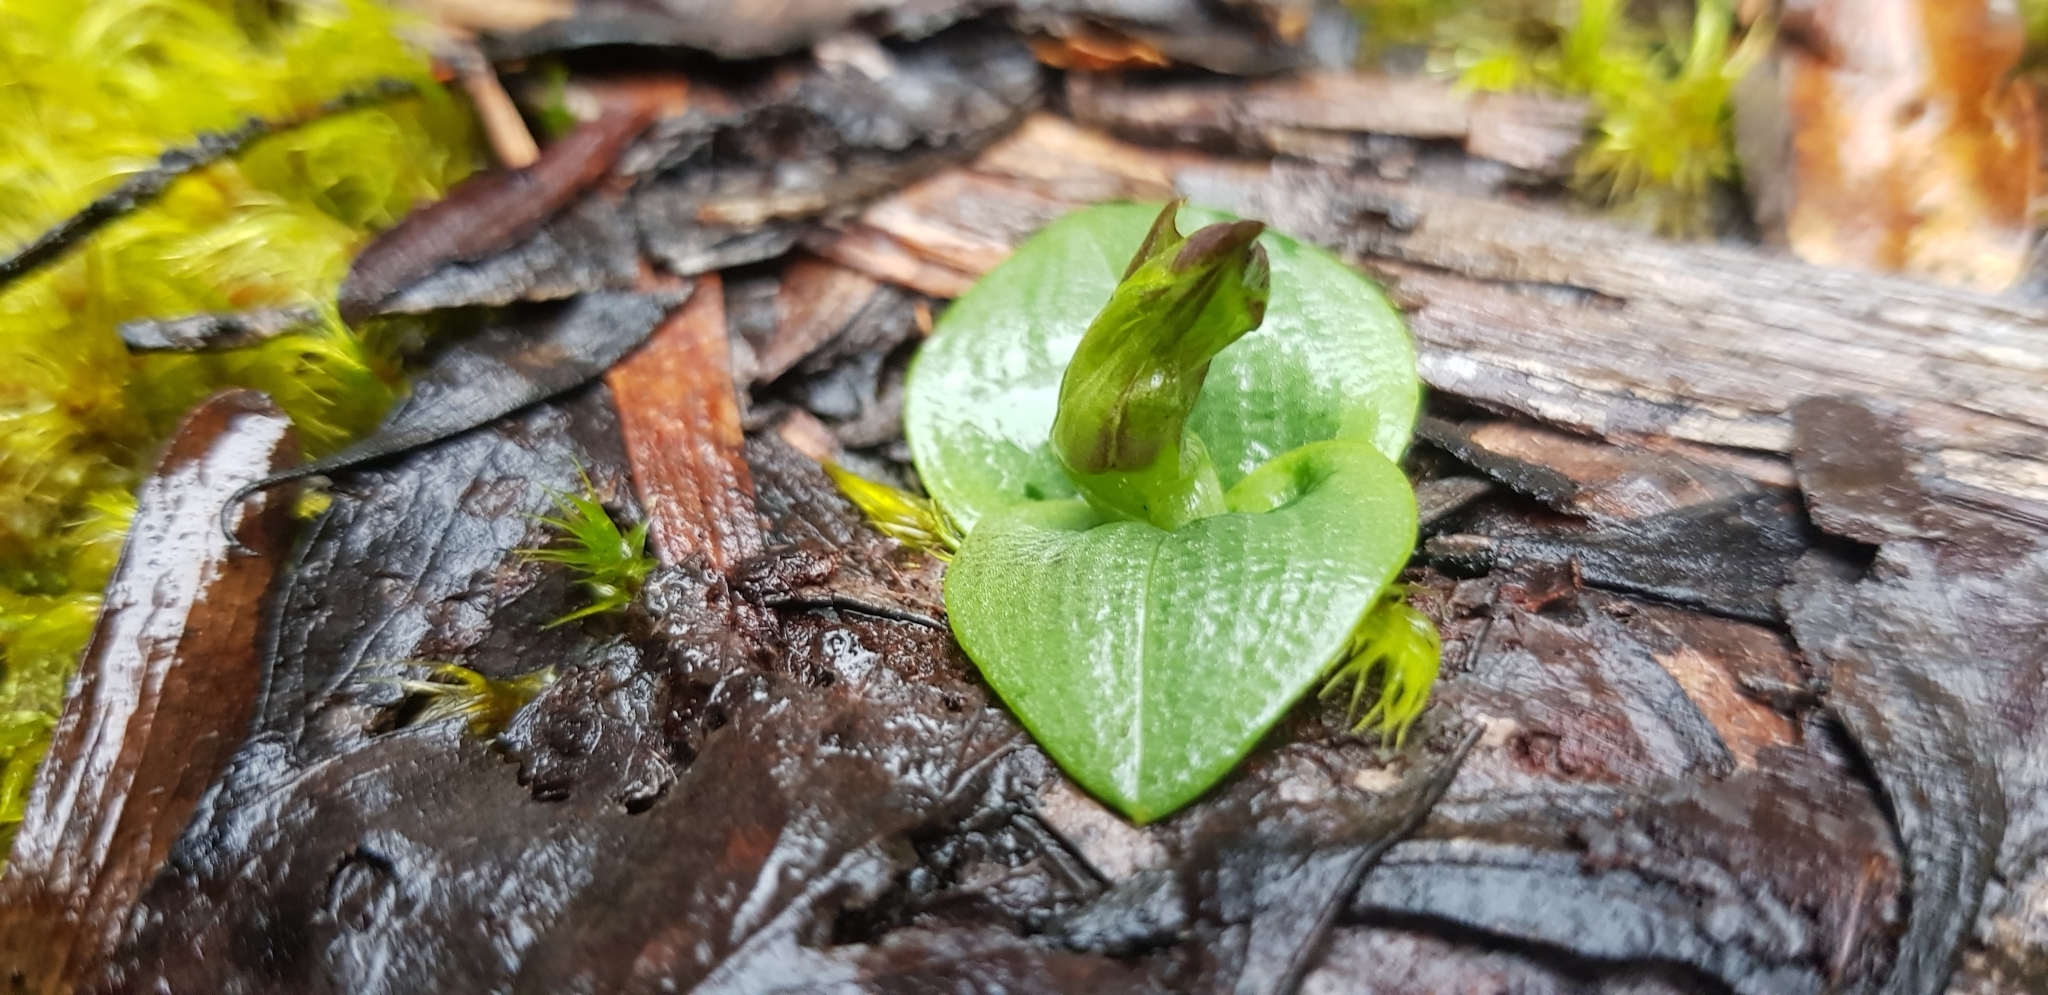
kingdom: Plantae
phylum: Tracheophyta
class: Liliopsida
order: Asparagales
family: Orchidaceae
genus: Chiloglottis
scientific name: Chiloglottis
